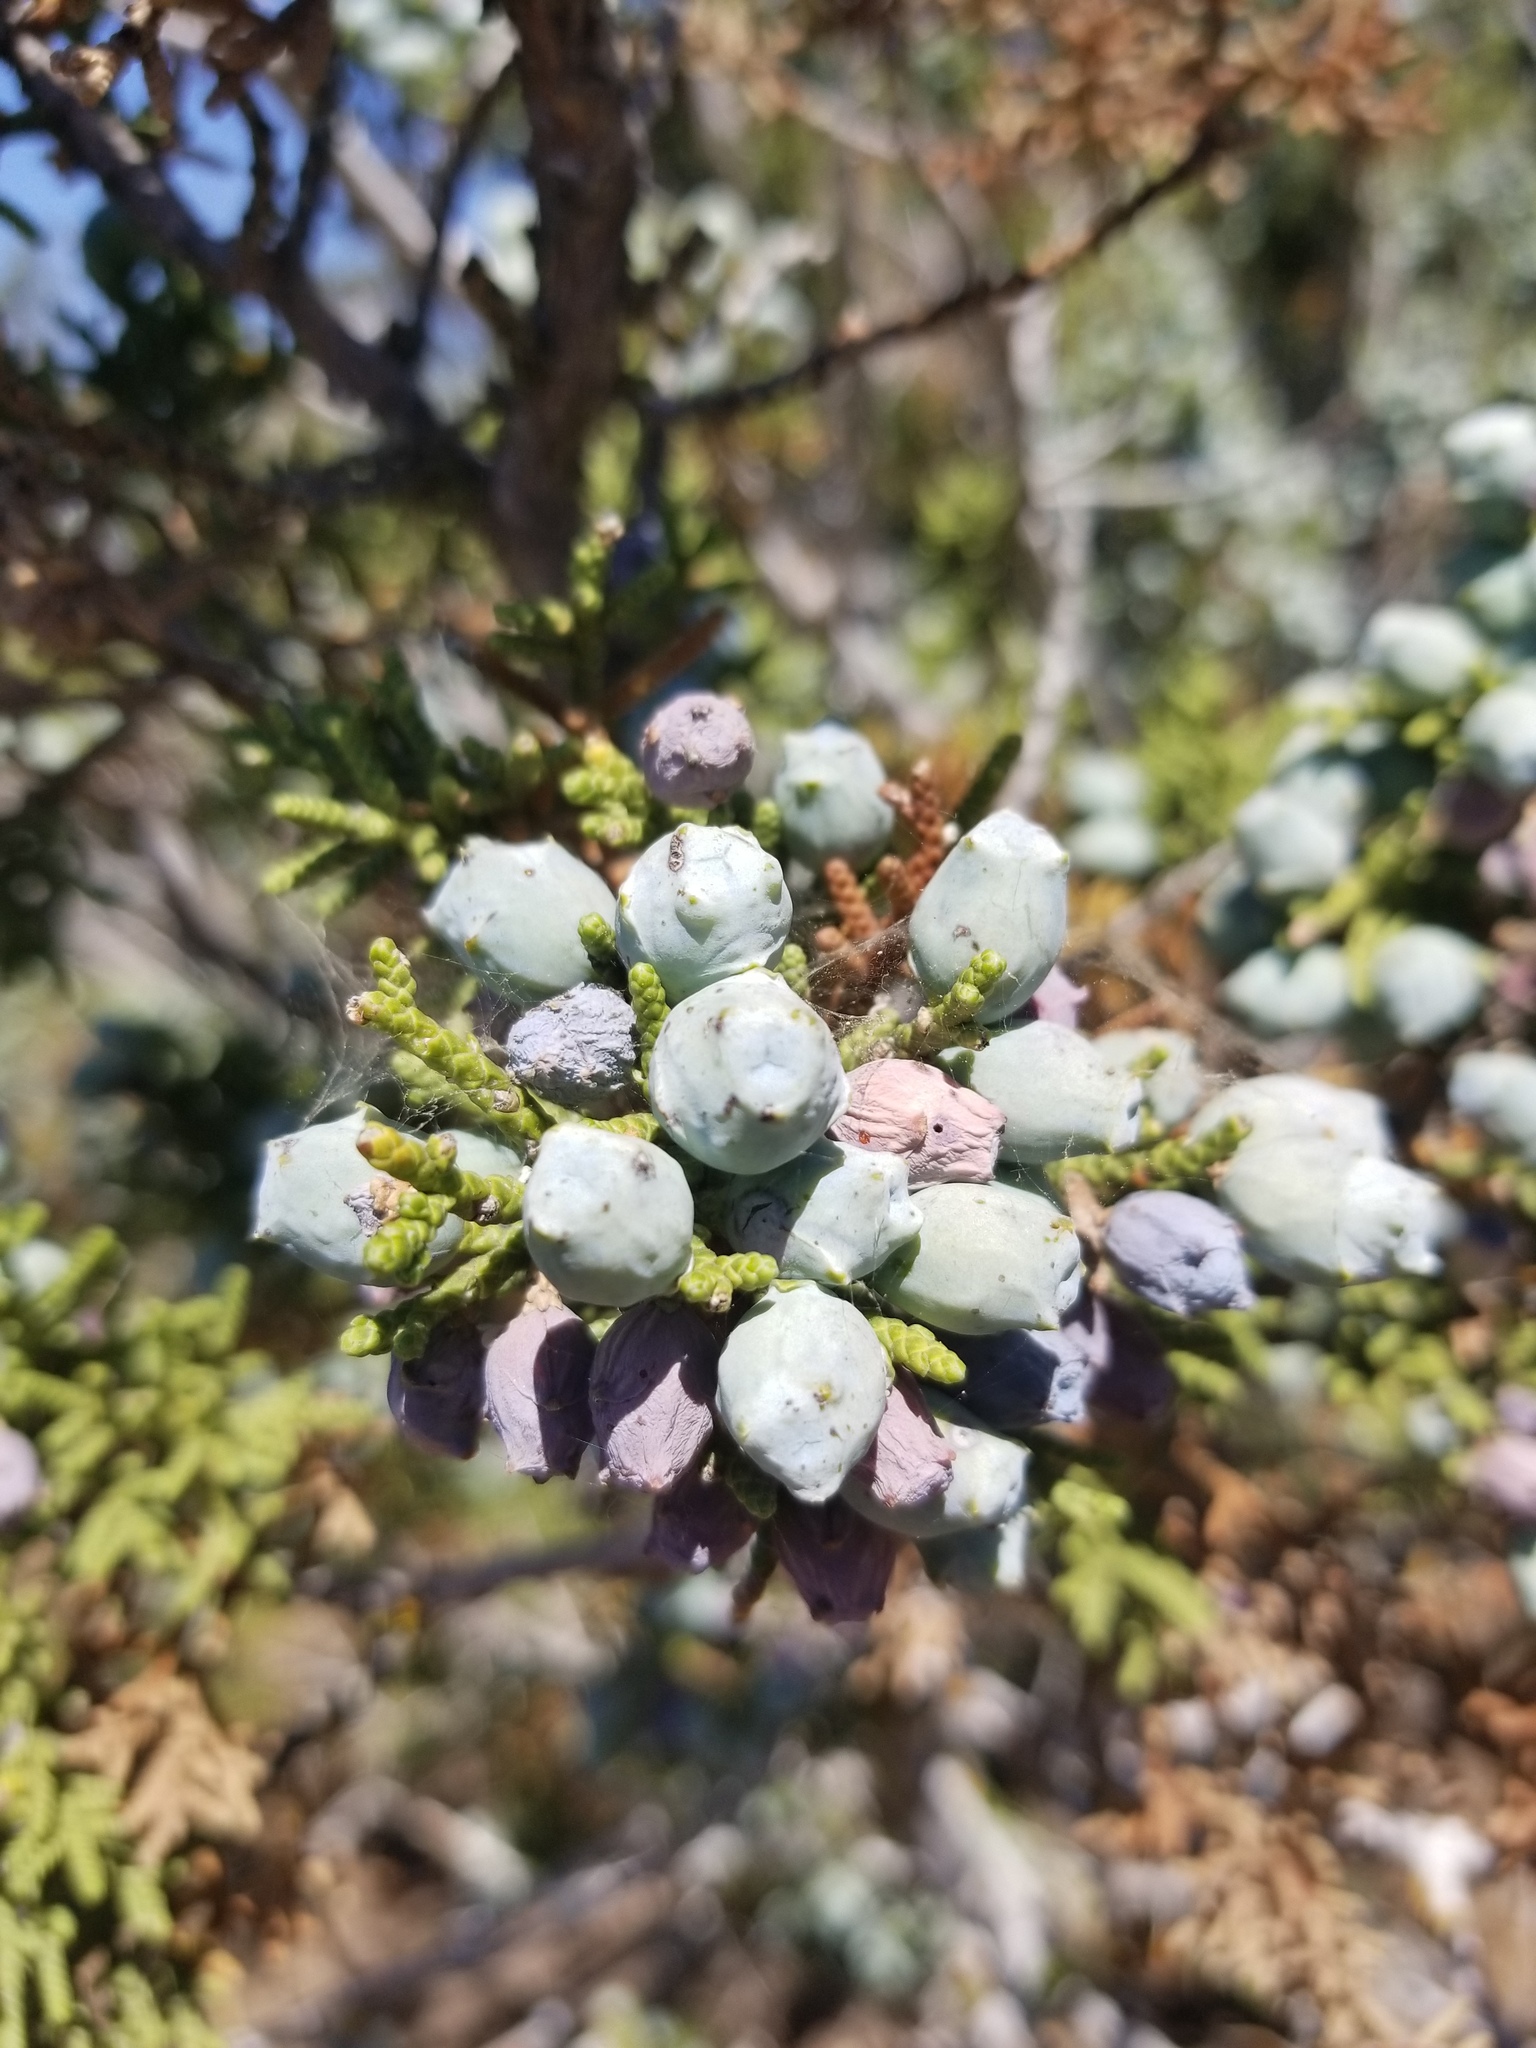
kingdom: Plantae
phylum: Tracheophyta
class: Pinopsida
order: Pinales
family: Cupressaceae
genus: Juniperus
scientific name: Juniperus californica
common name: California juniper
